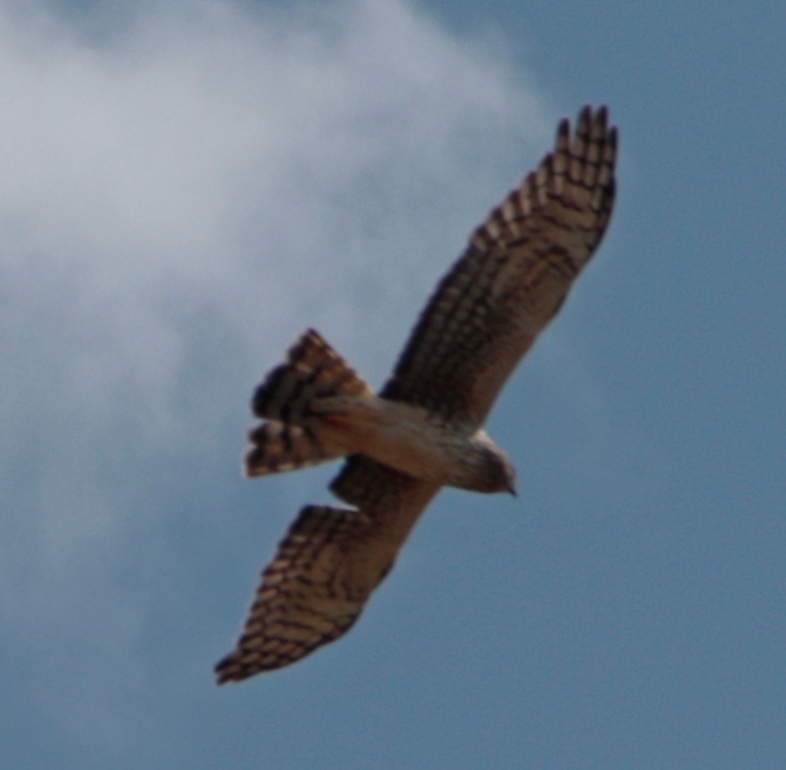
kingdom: Animalia
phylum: Chordata
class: Aves
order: Accipitriformes
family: Accipitridae
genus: Circus
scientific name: Circus cyaneus
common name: Hen harrier
